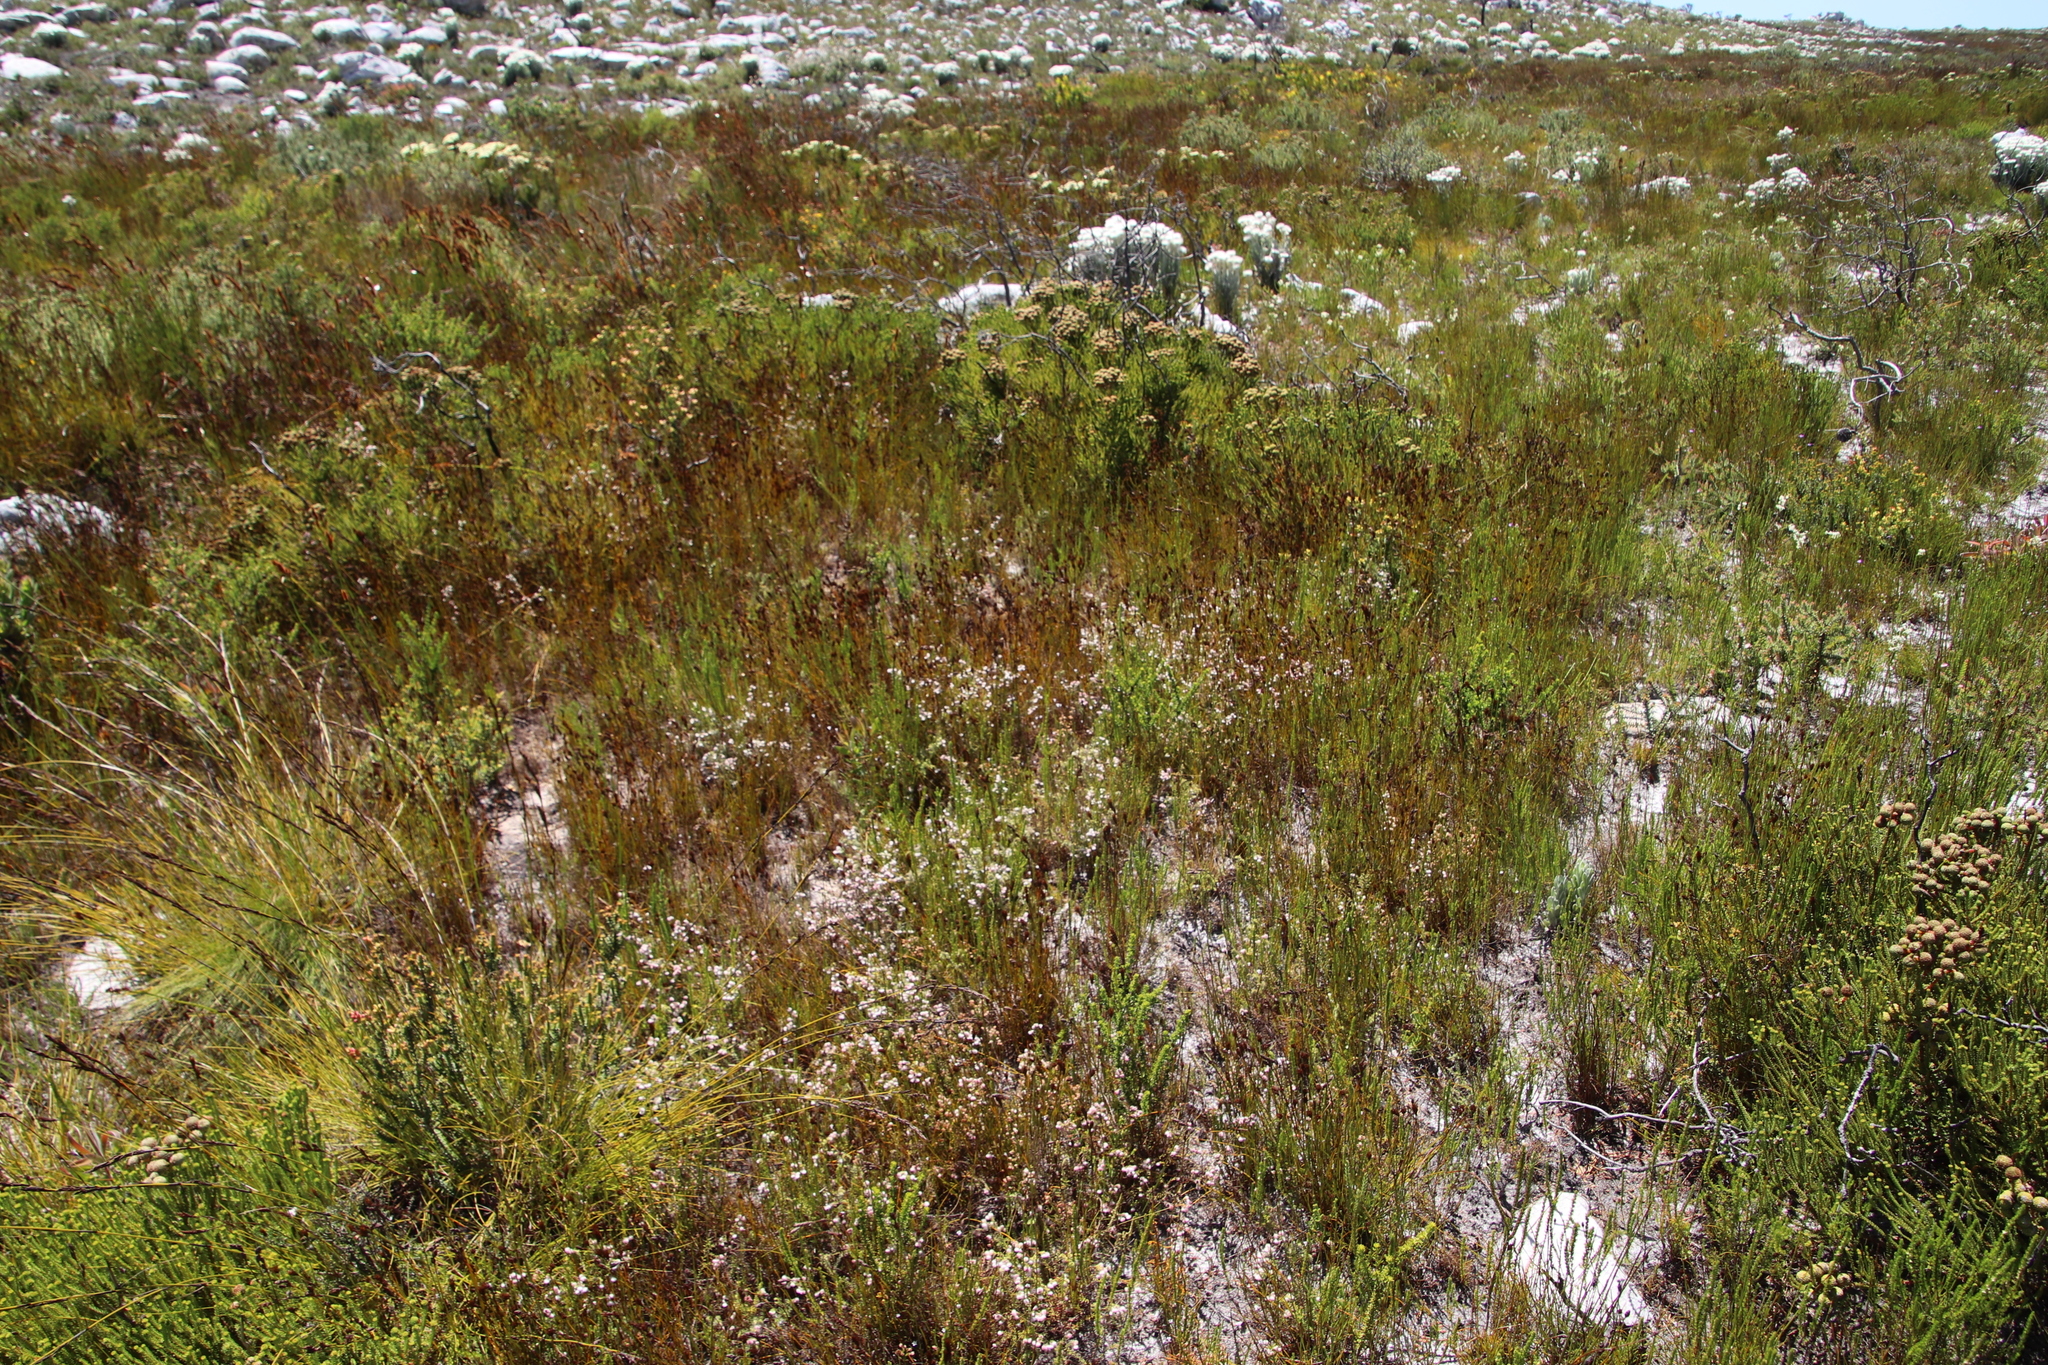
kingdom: Plantae
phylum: Tracheophyta
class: Magnoliopsida
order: Ericales
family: Ericaceae
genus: Erica
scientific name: Erica bruniades
